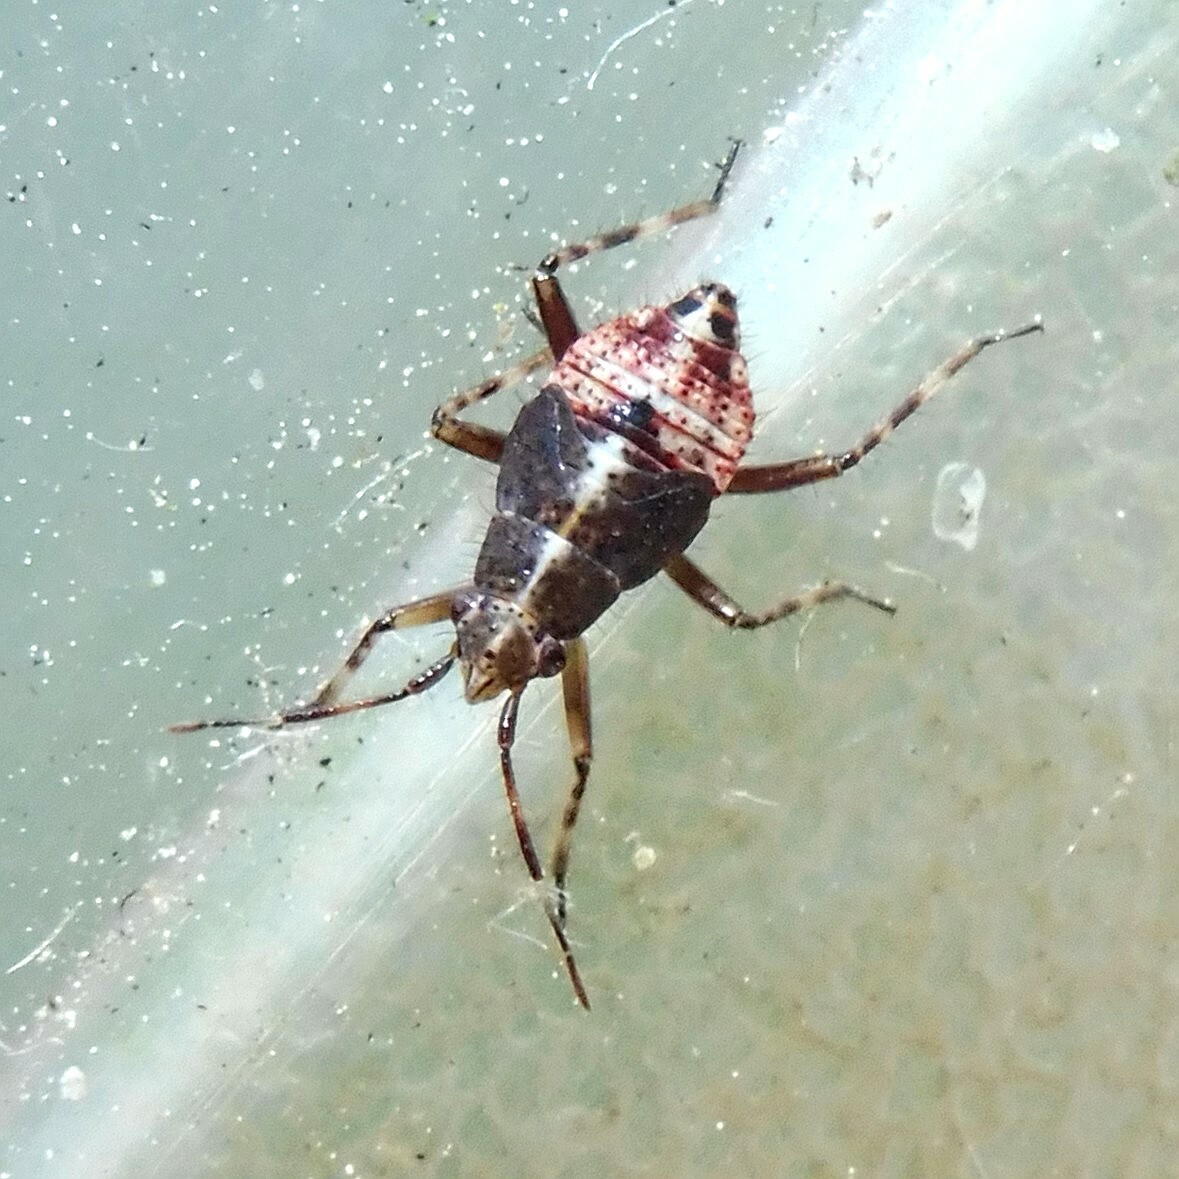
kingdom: Animalia
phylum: Arthropoda
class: Insecta
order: Hemiptera
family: Miridae
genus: Deraeocoris
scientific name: Deraeocoris flavilinea
